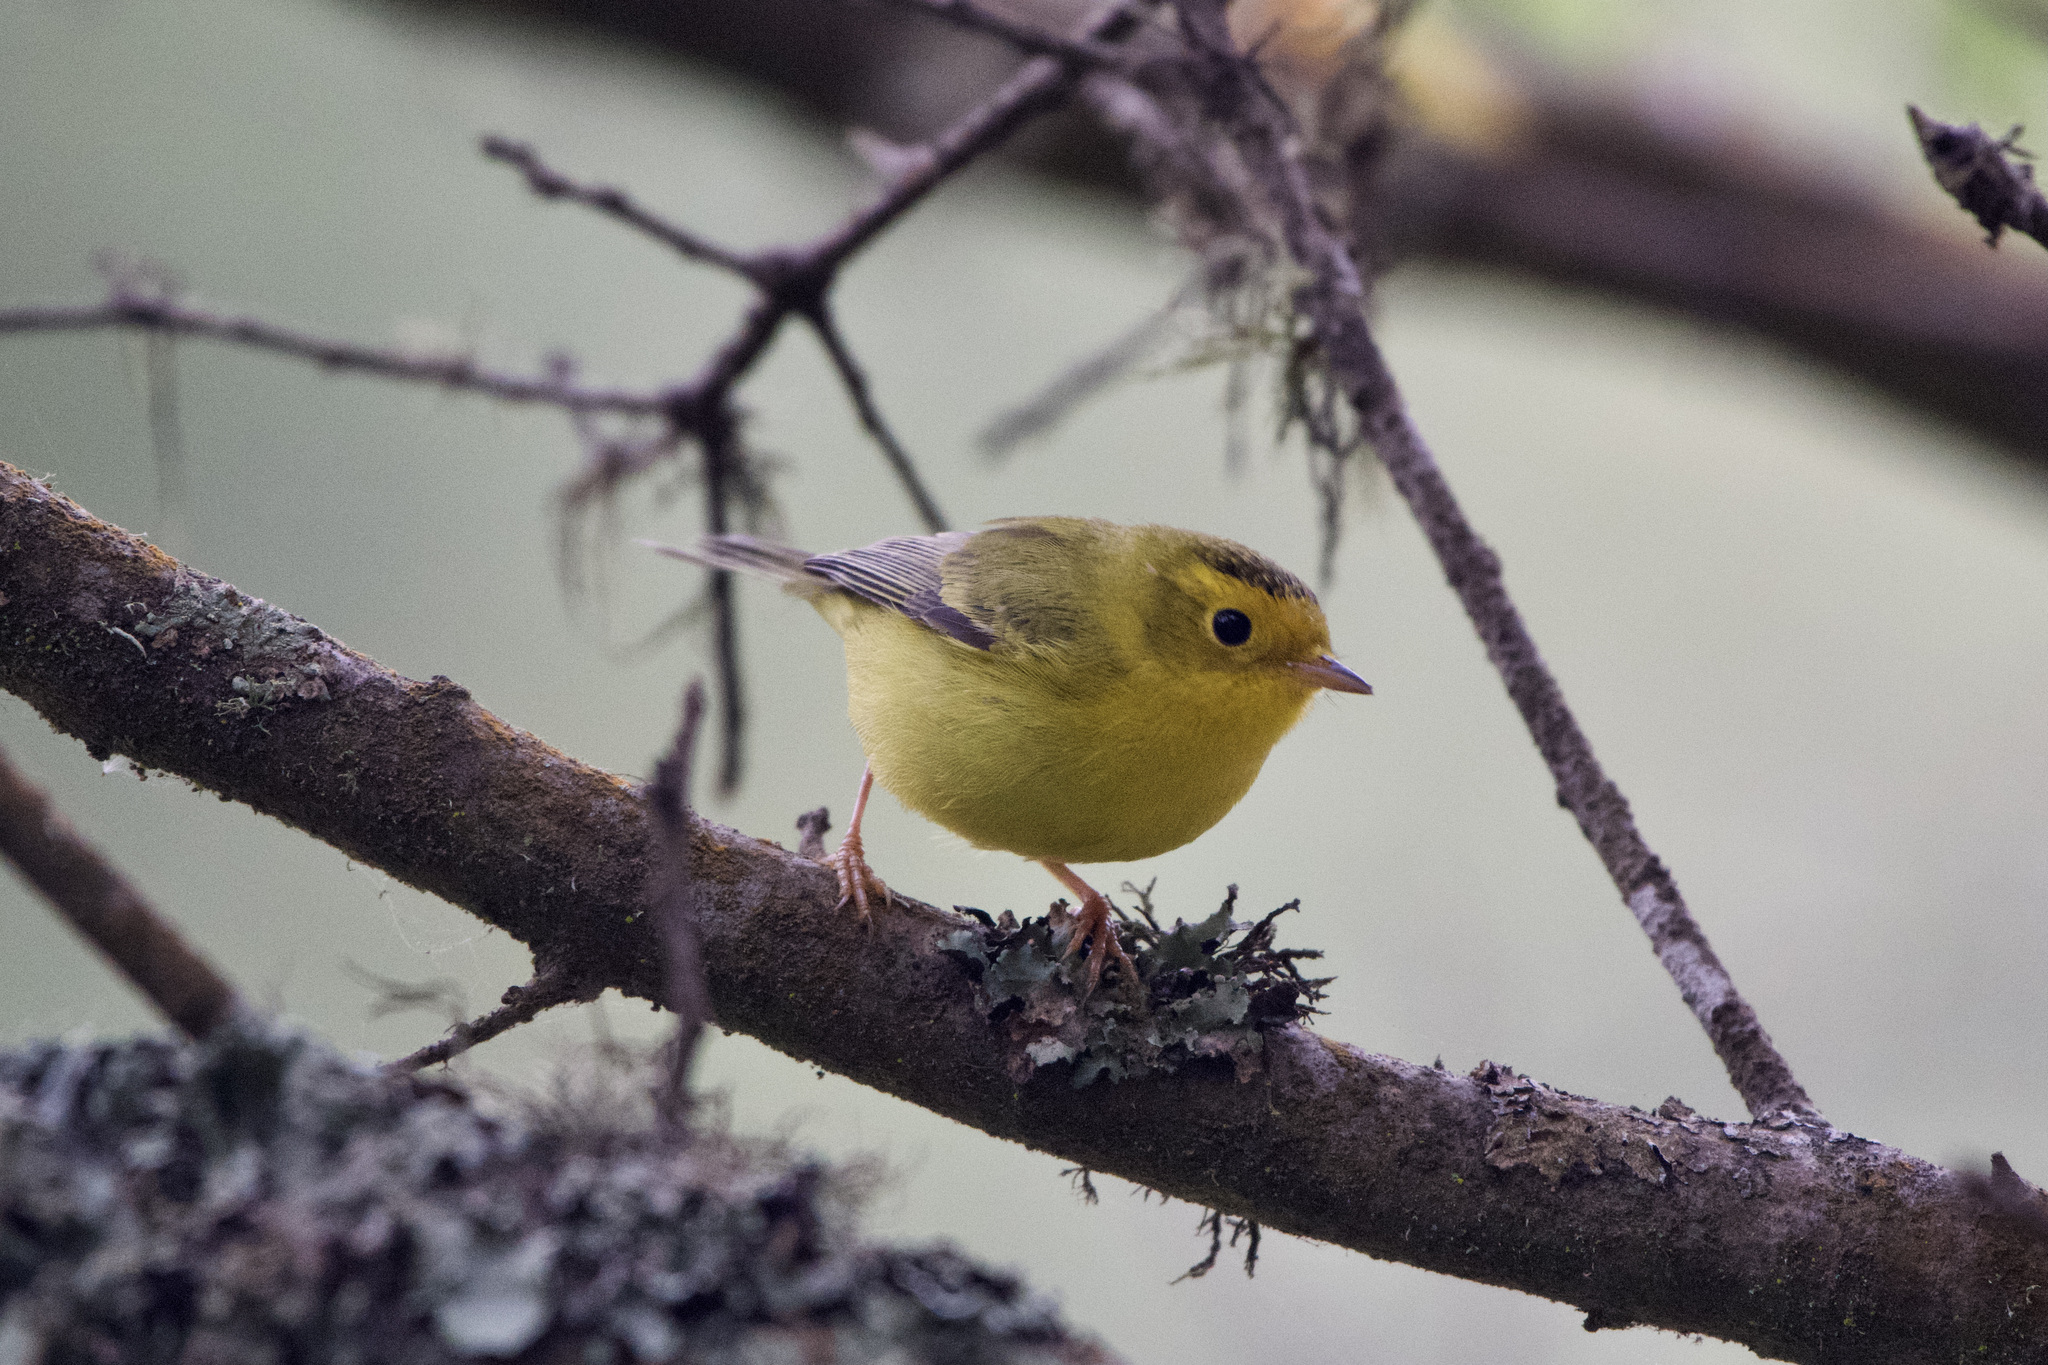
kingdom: Animalia
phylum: Chordata
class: Aves
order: Passeriformes
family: Parulidae
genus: Cardellina
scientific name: Cardellina pusilla
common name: Wilson's warbler
